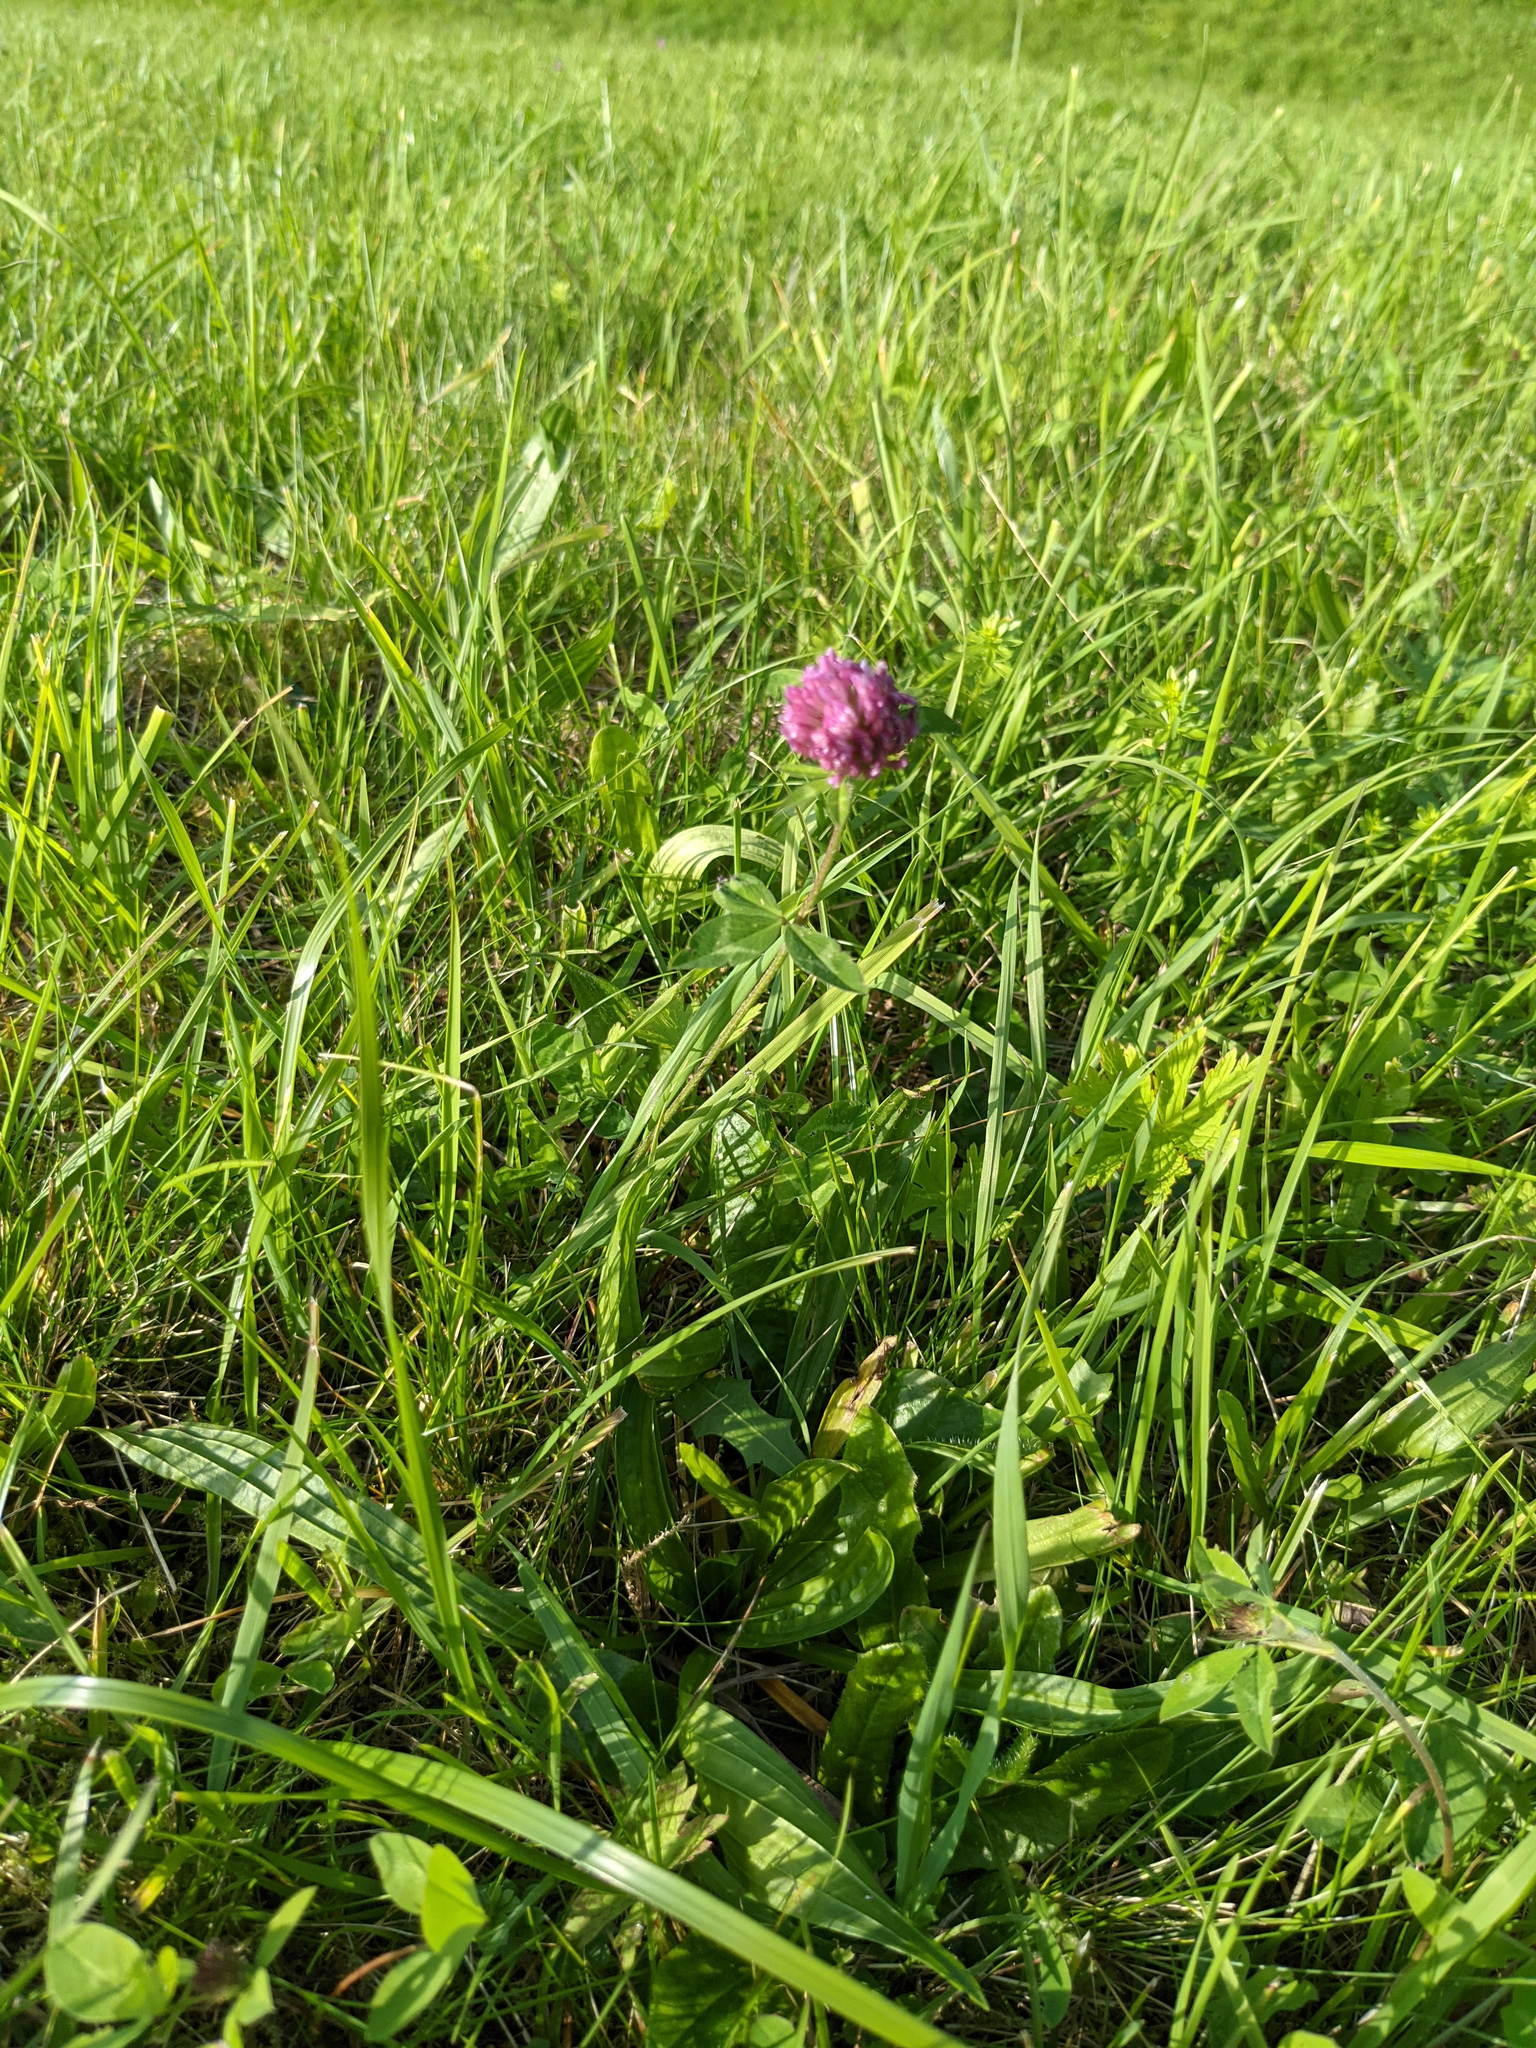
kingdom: Plantae
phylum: Tracheophyta
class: Magnoliopsida
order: Fabales
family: Fabaceae
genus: Trifolium
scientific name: Trifolium pratense
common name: Red clover
